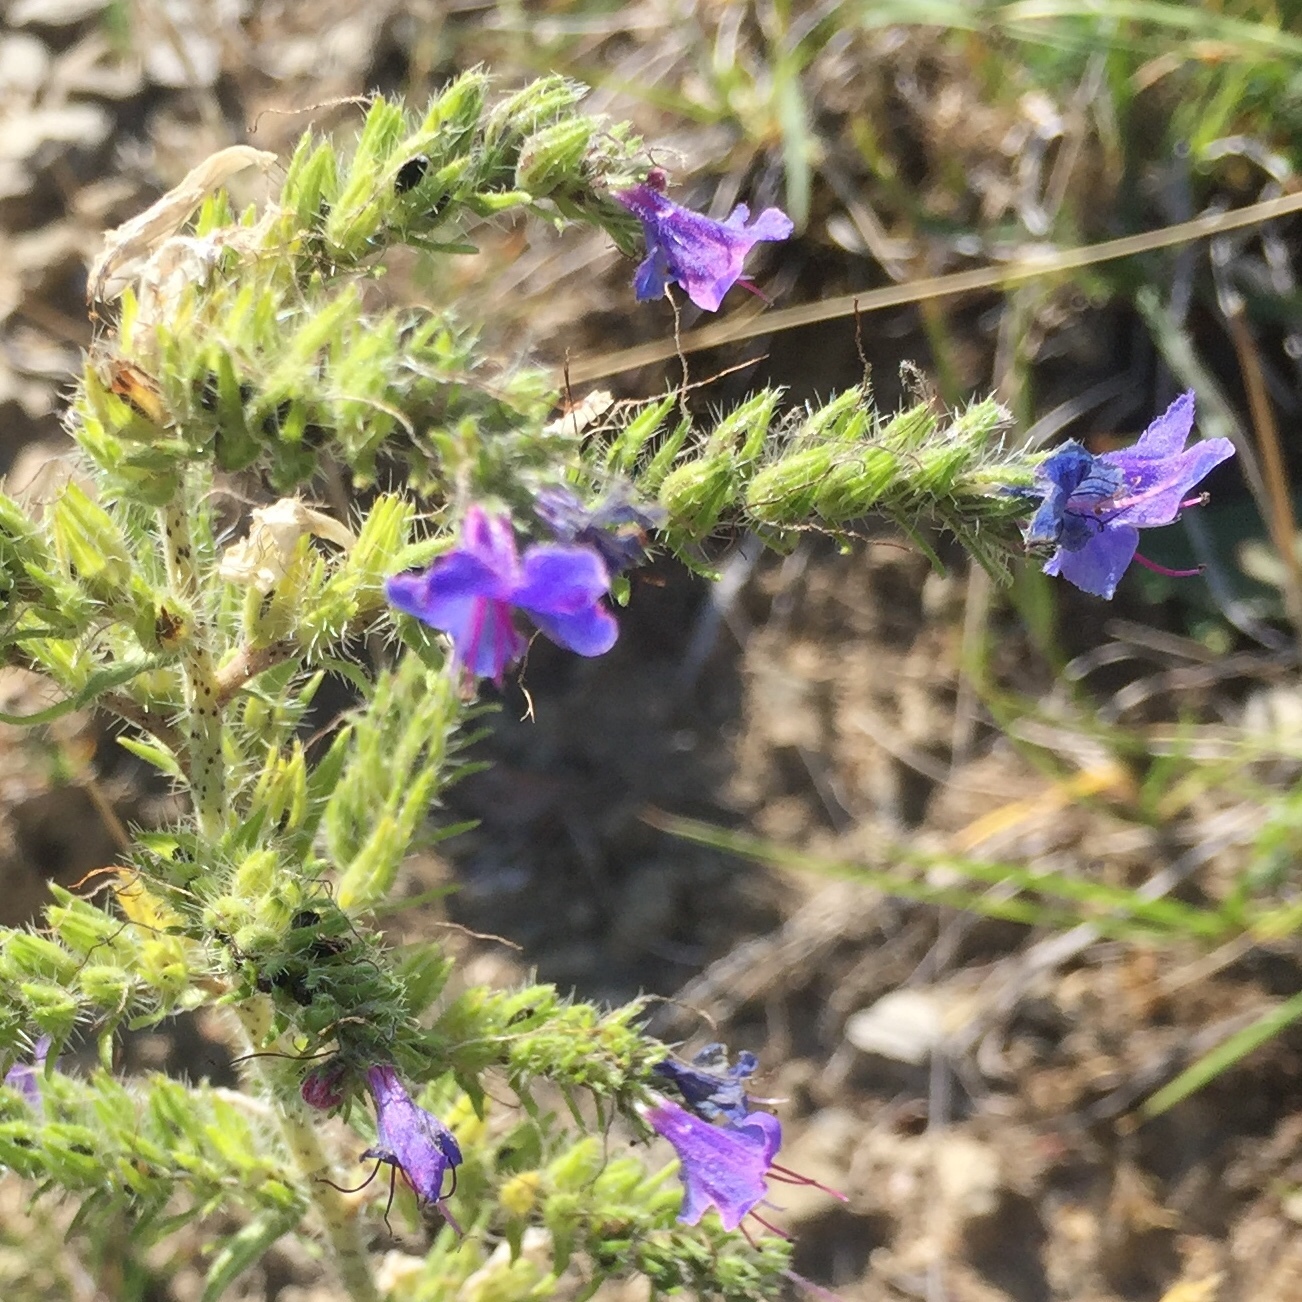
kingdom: Plantae
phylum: Tracheophyta
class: Magnoliopsida
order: Boraginales
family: Boraginaceae
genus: Echium
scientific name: Echium vulgare
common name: Common viper's bugloss
